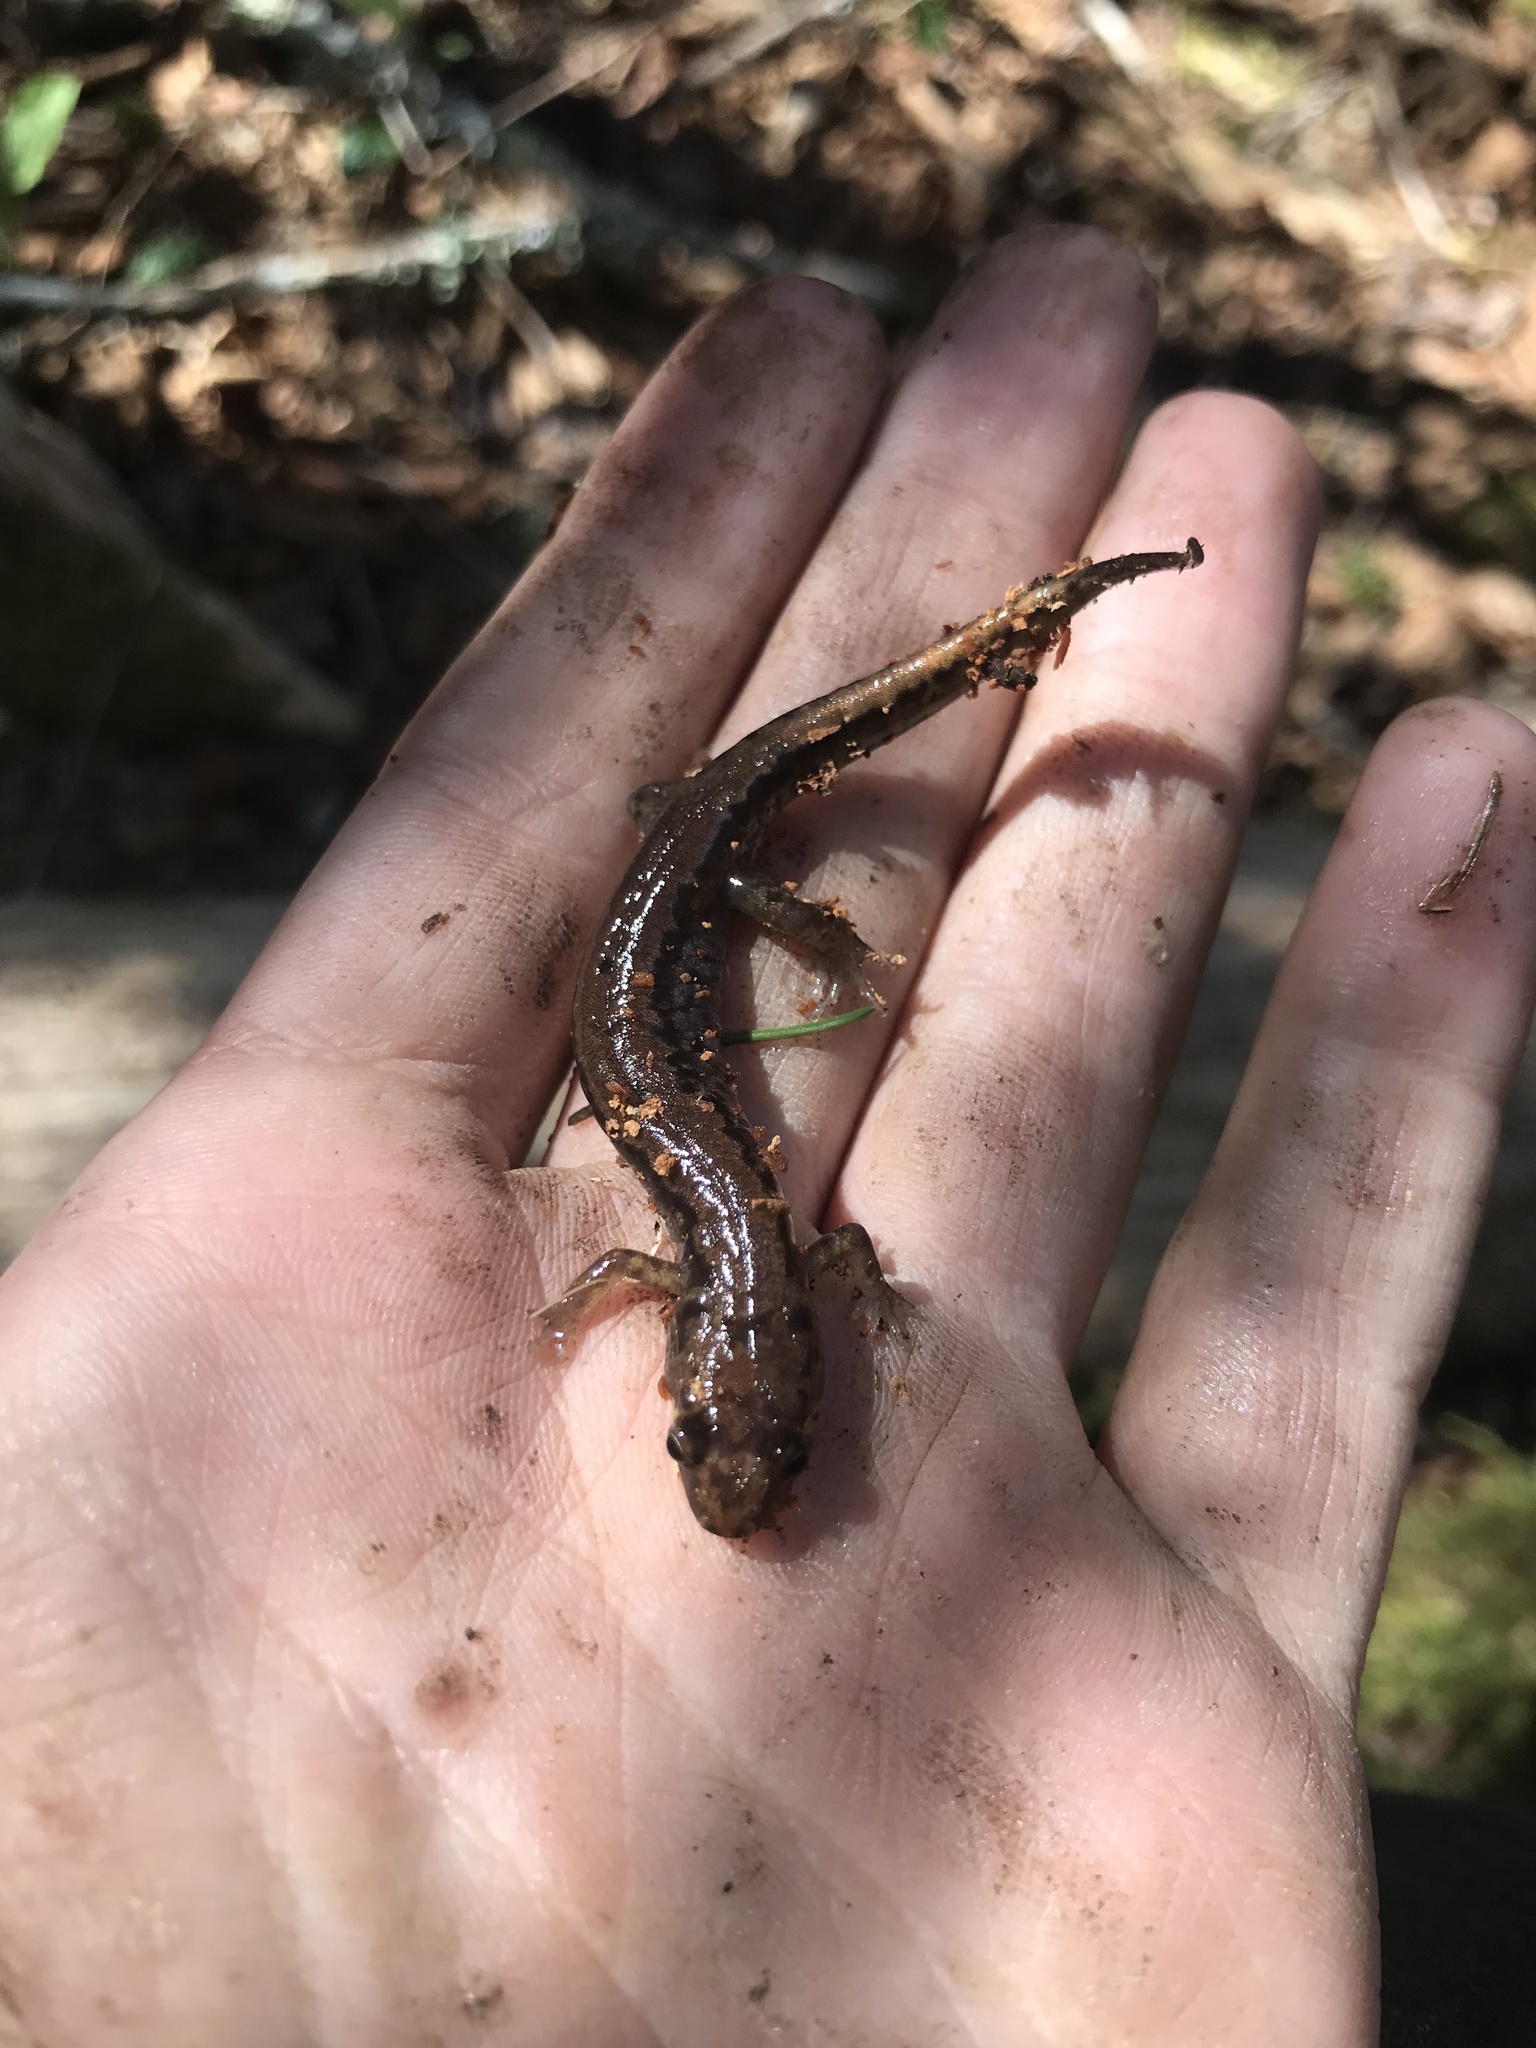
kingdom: Animalia
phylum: Chordata
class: Amphibia
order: Caudata
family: Plethodontidae
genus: Desmognathus
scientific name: Desmognathus adatsihi
